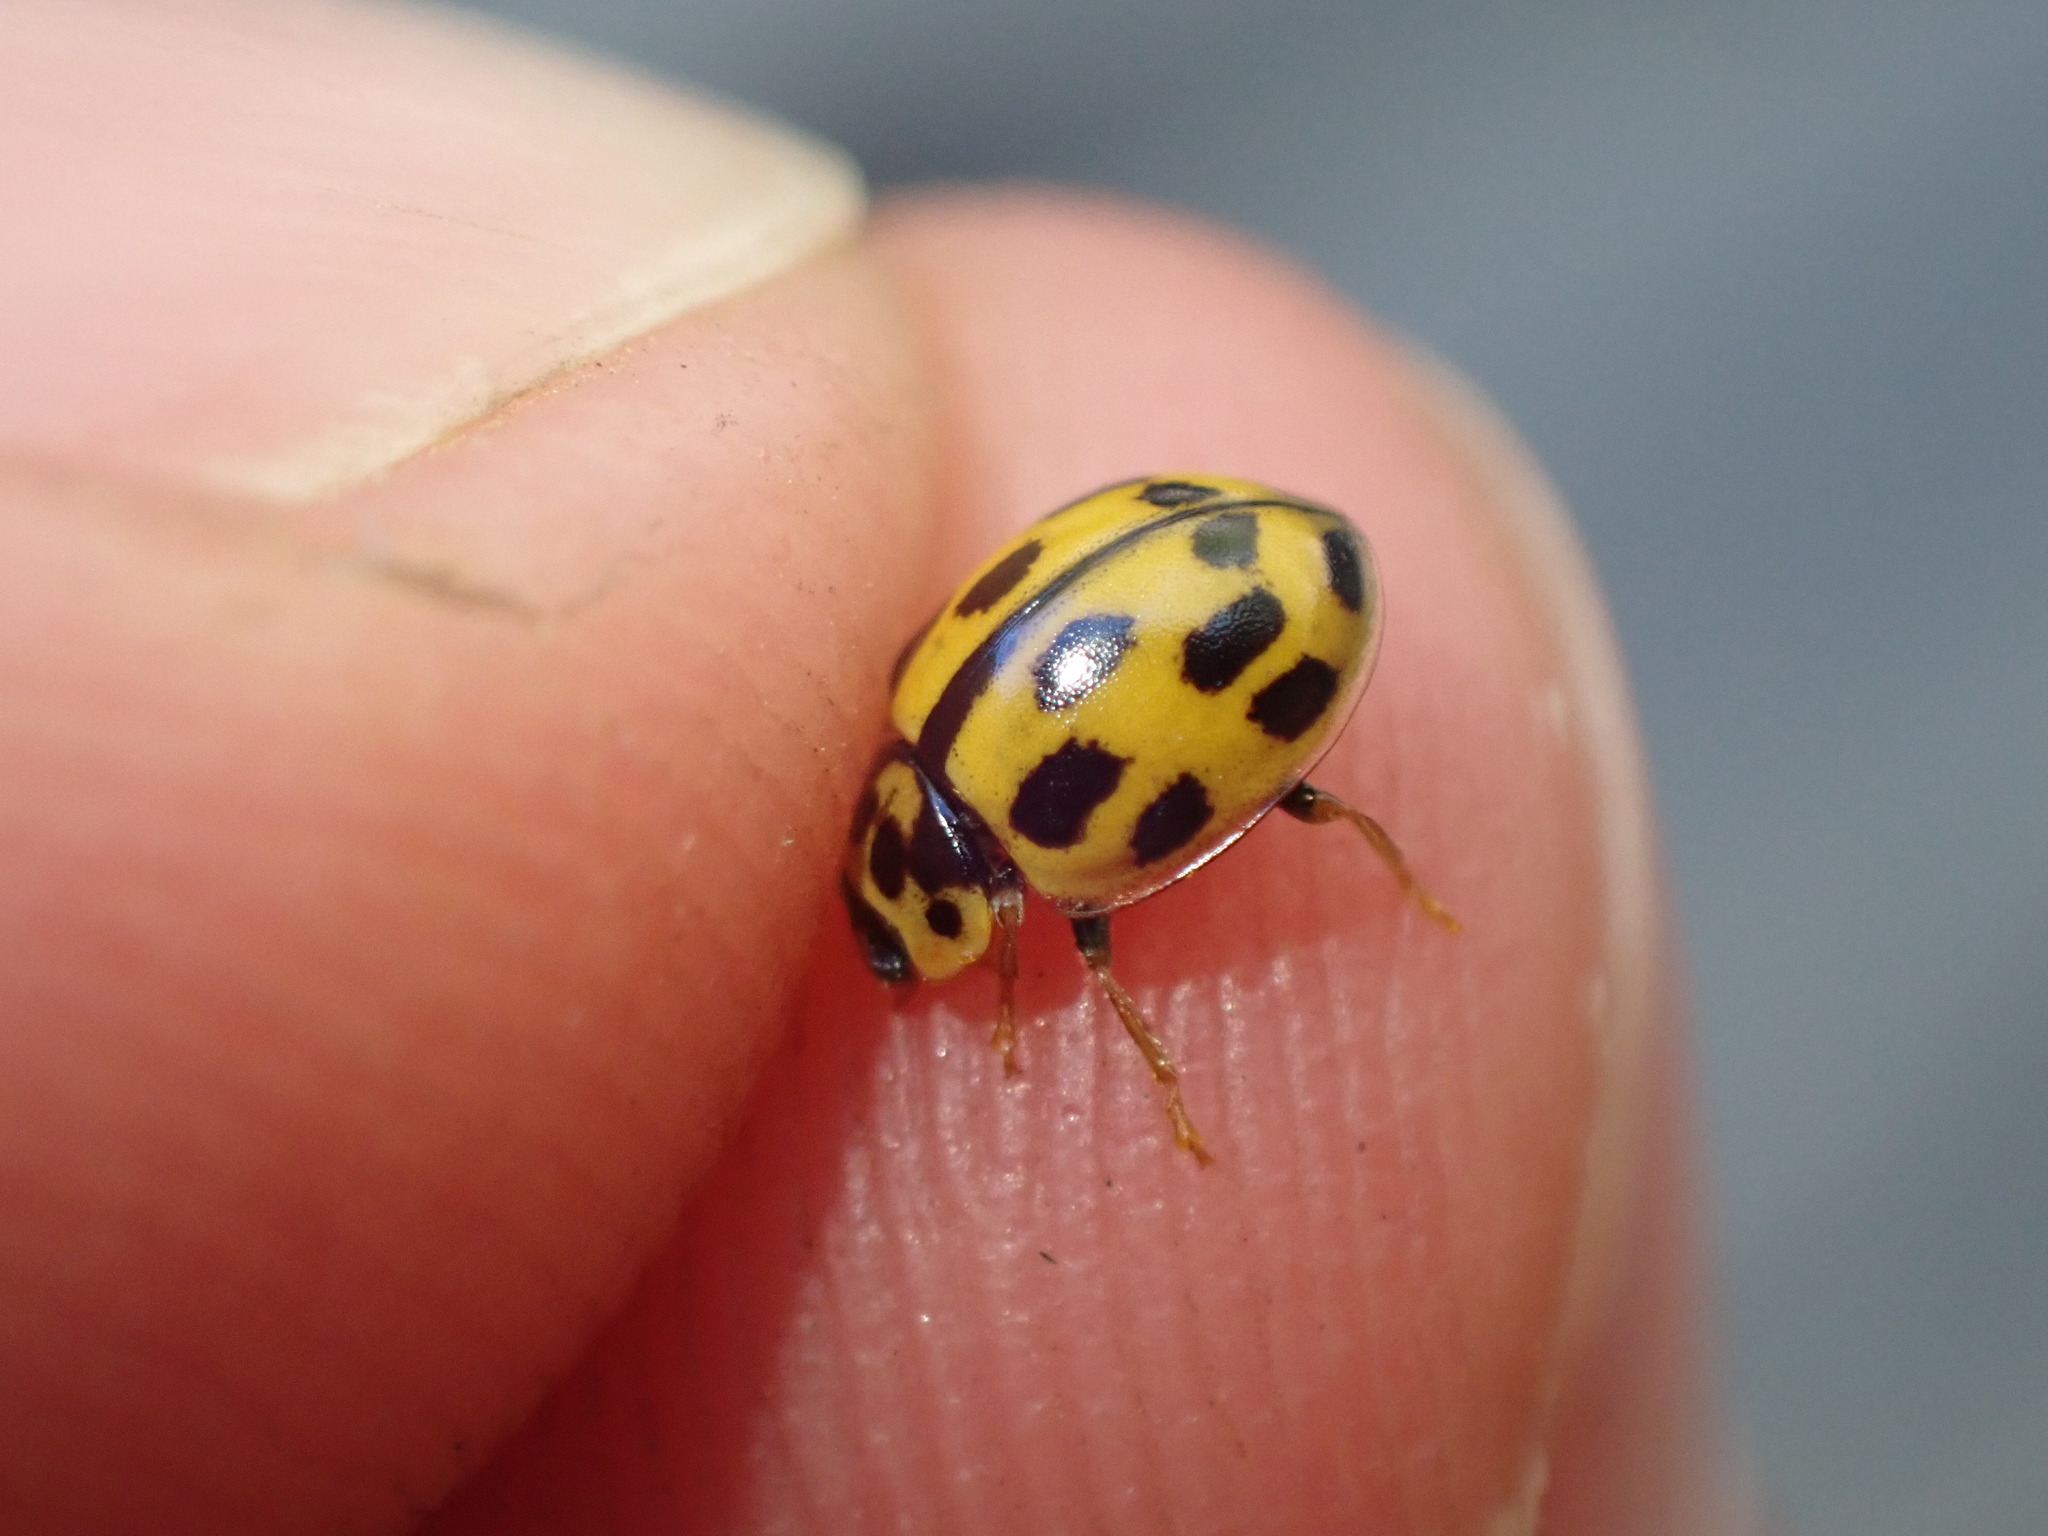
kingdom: Animalia
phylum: Arthropoda
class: Insecta
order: Coleoptera
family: Coccinellidae
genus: Propylaea
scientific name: Propylaea quatuordecimpunctata
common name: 14-spotted ladybird beetle
